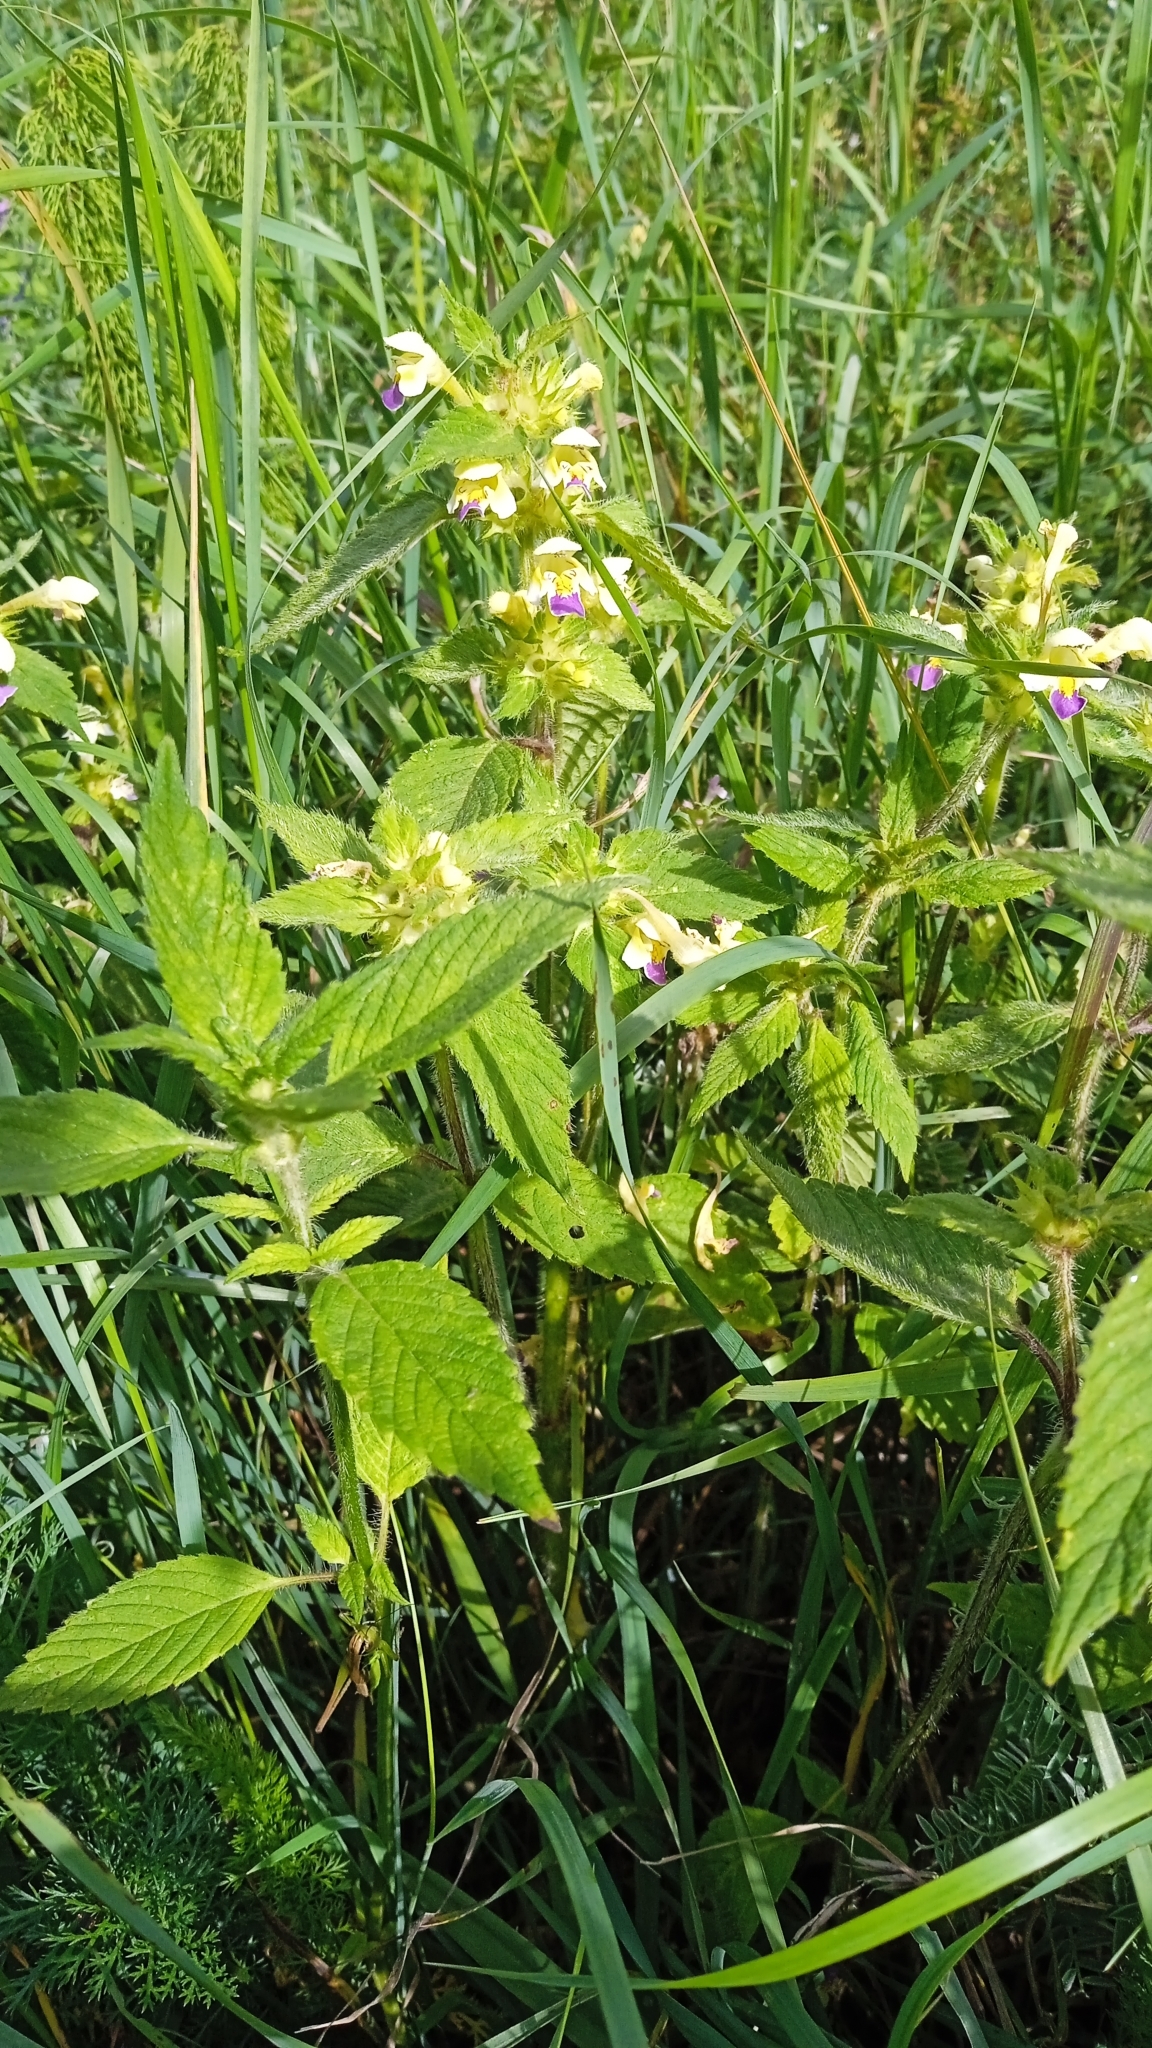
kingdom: Plantae
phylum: Tracheophyta
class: Magnoliopsida
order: Lamiales
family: Lamiaceae
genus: Galeopsis
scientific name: Galeopsis speciosa
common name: Large-flowered hemp-nettle
